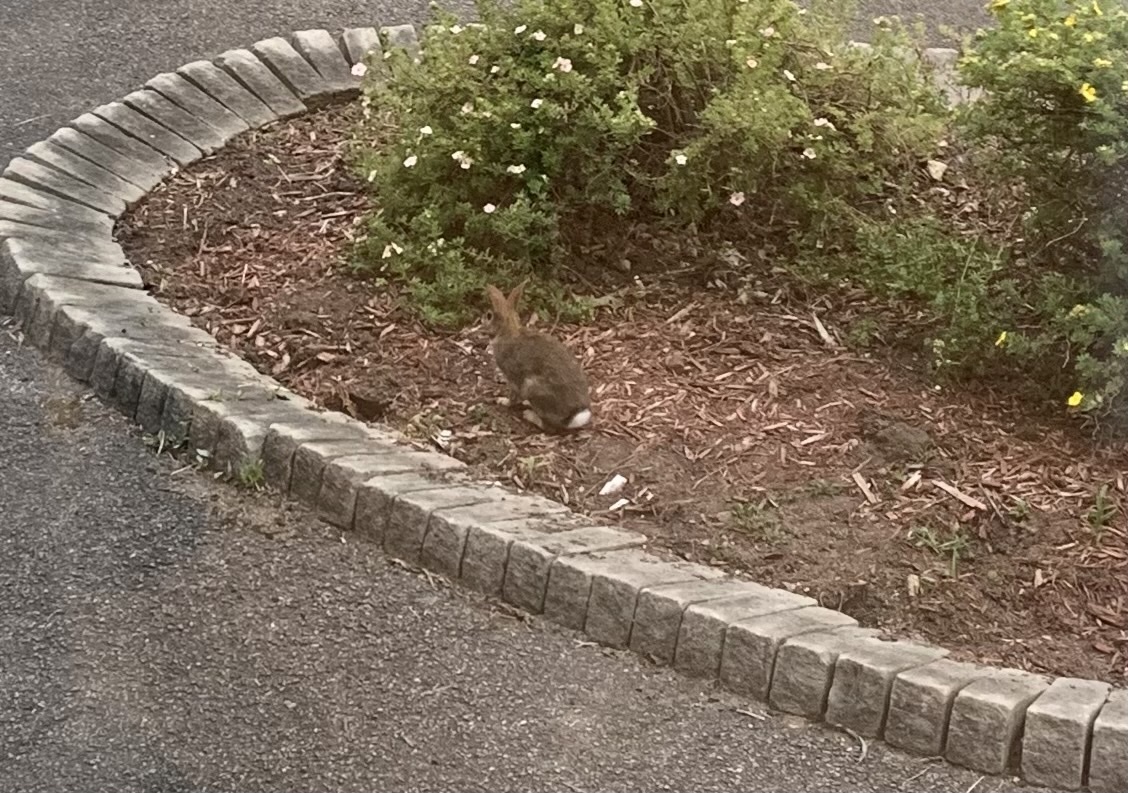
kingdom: Animalia
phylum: Chordata
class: Mammalia
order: Lagomorpha
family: Leporidae
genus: Sylvilagus
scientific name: Sylvilagus floridanus
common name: Eastern cottontail
